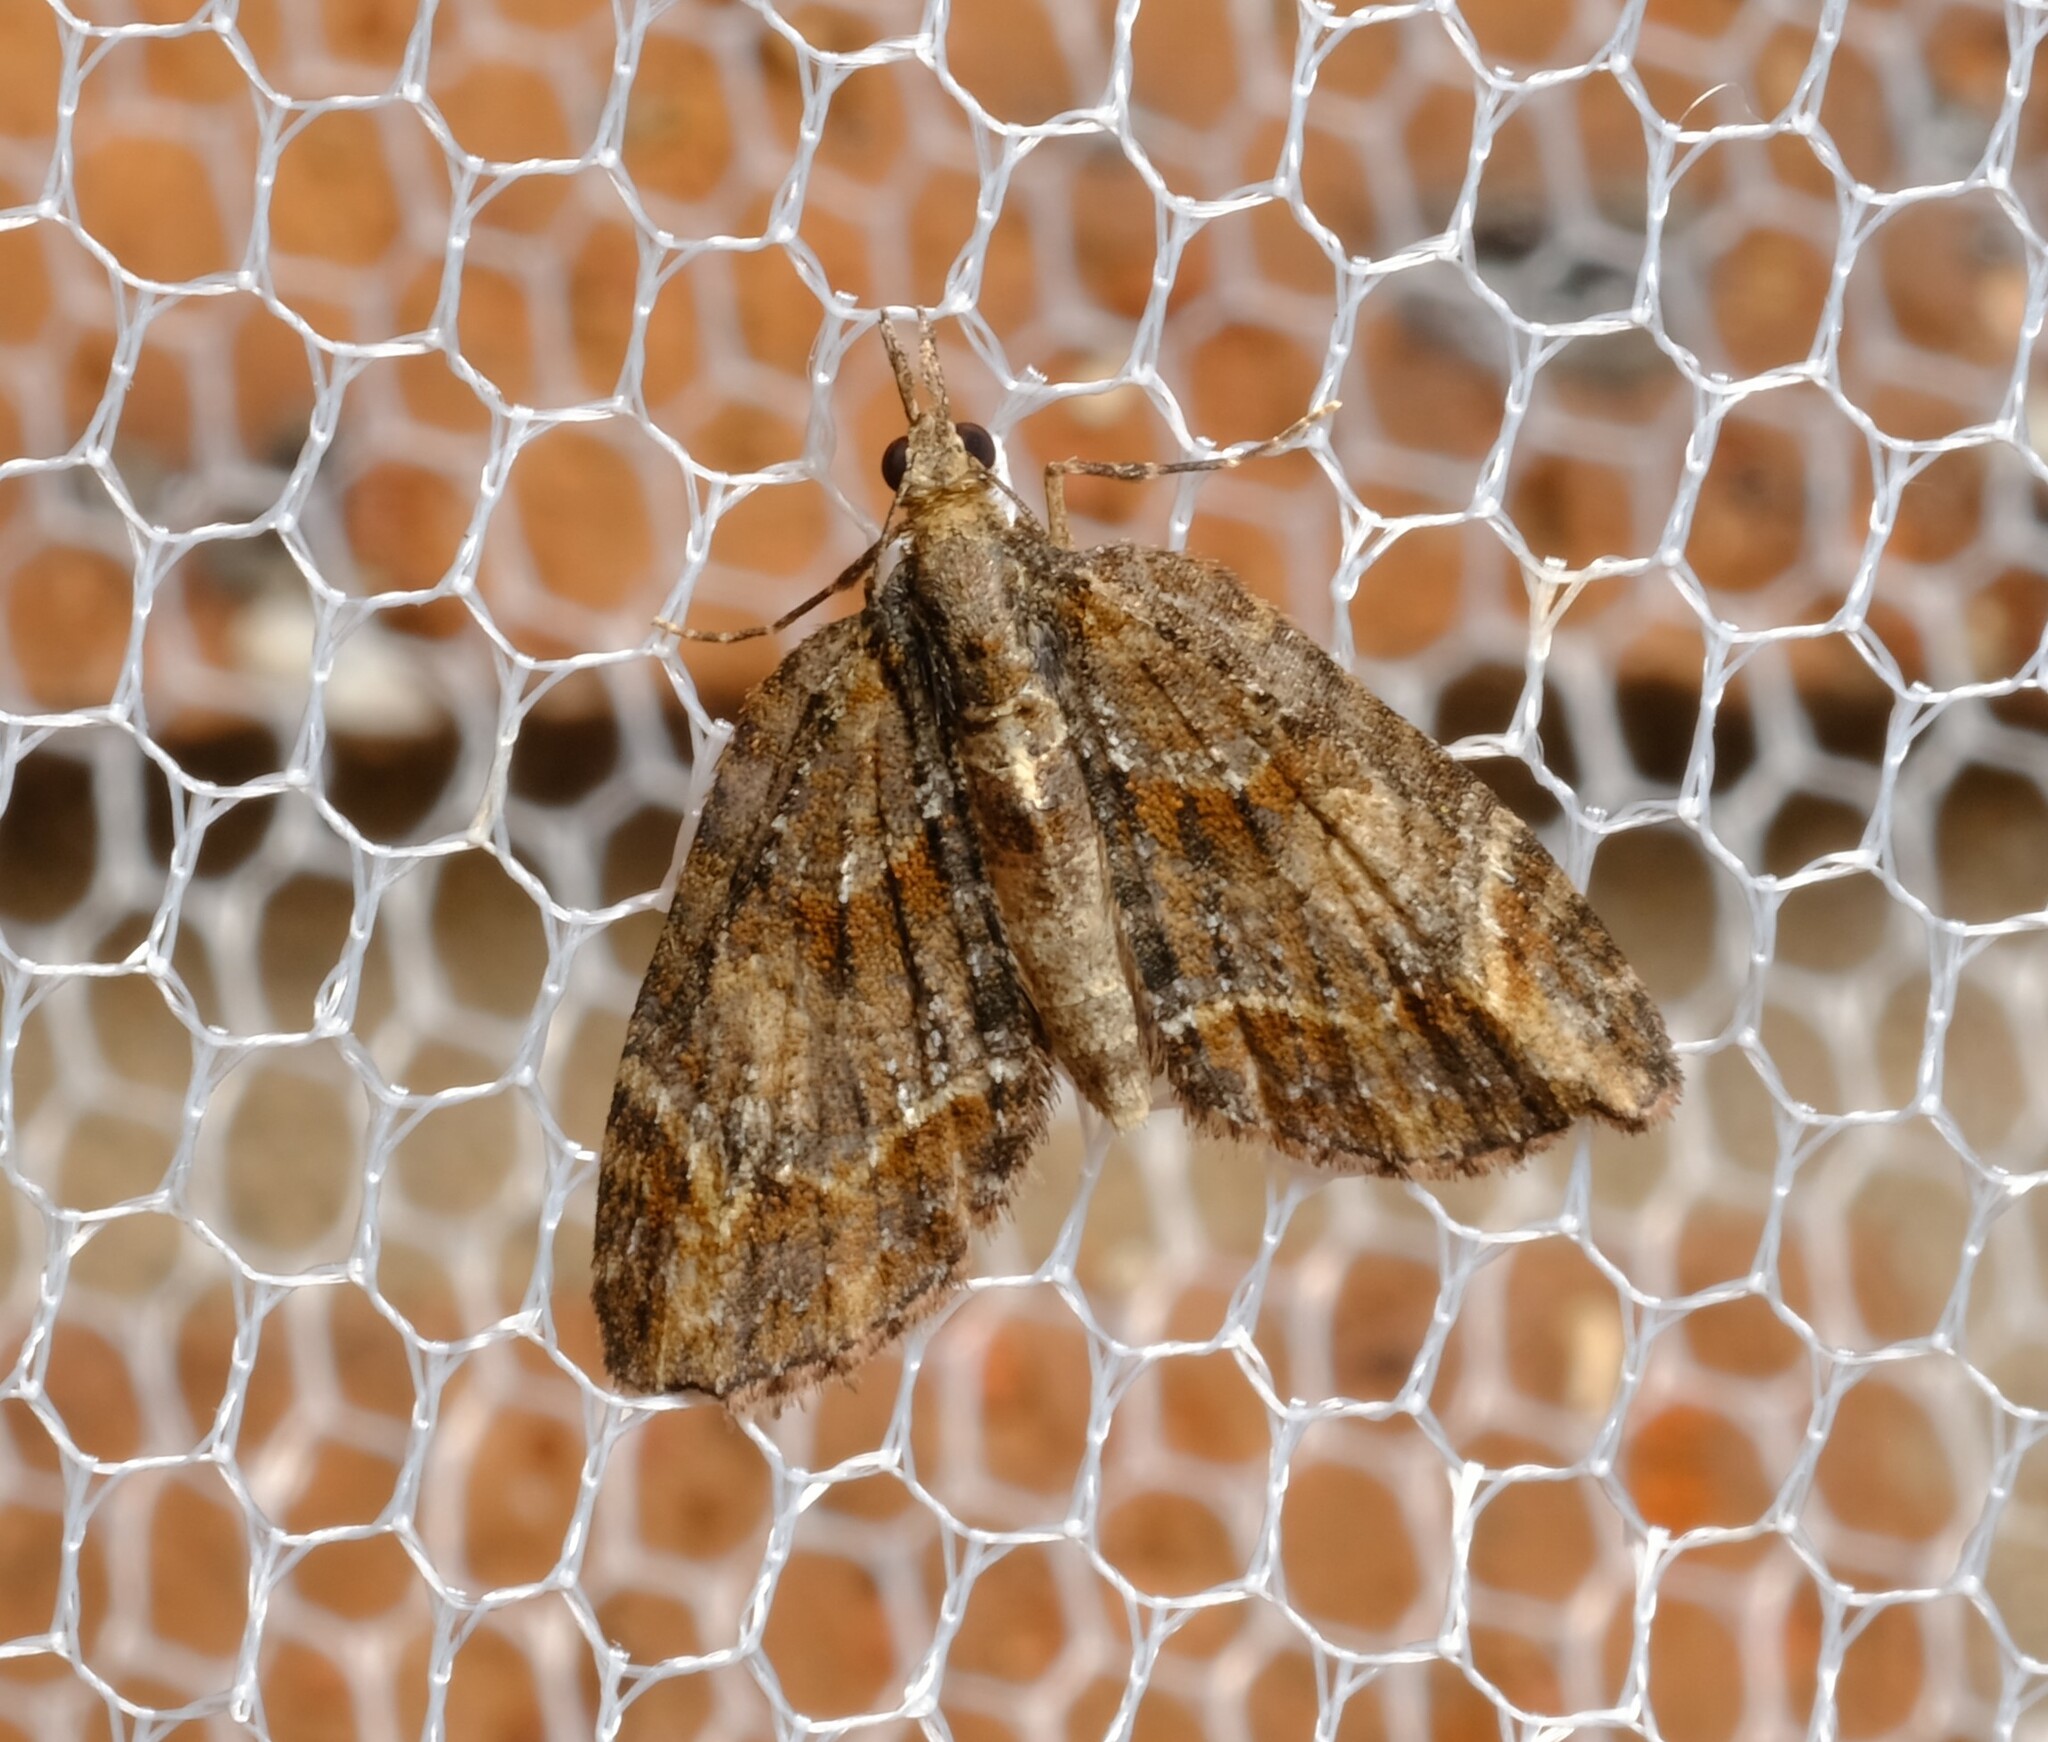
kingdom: Animalia
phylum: Arthropoda
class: Insecta
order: Lepidoptera
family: Geometridae
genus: Microdes
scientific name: Microdes diplodonta
